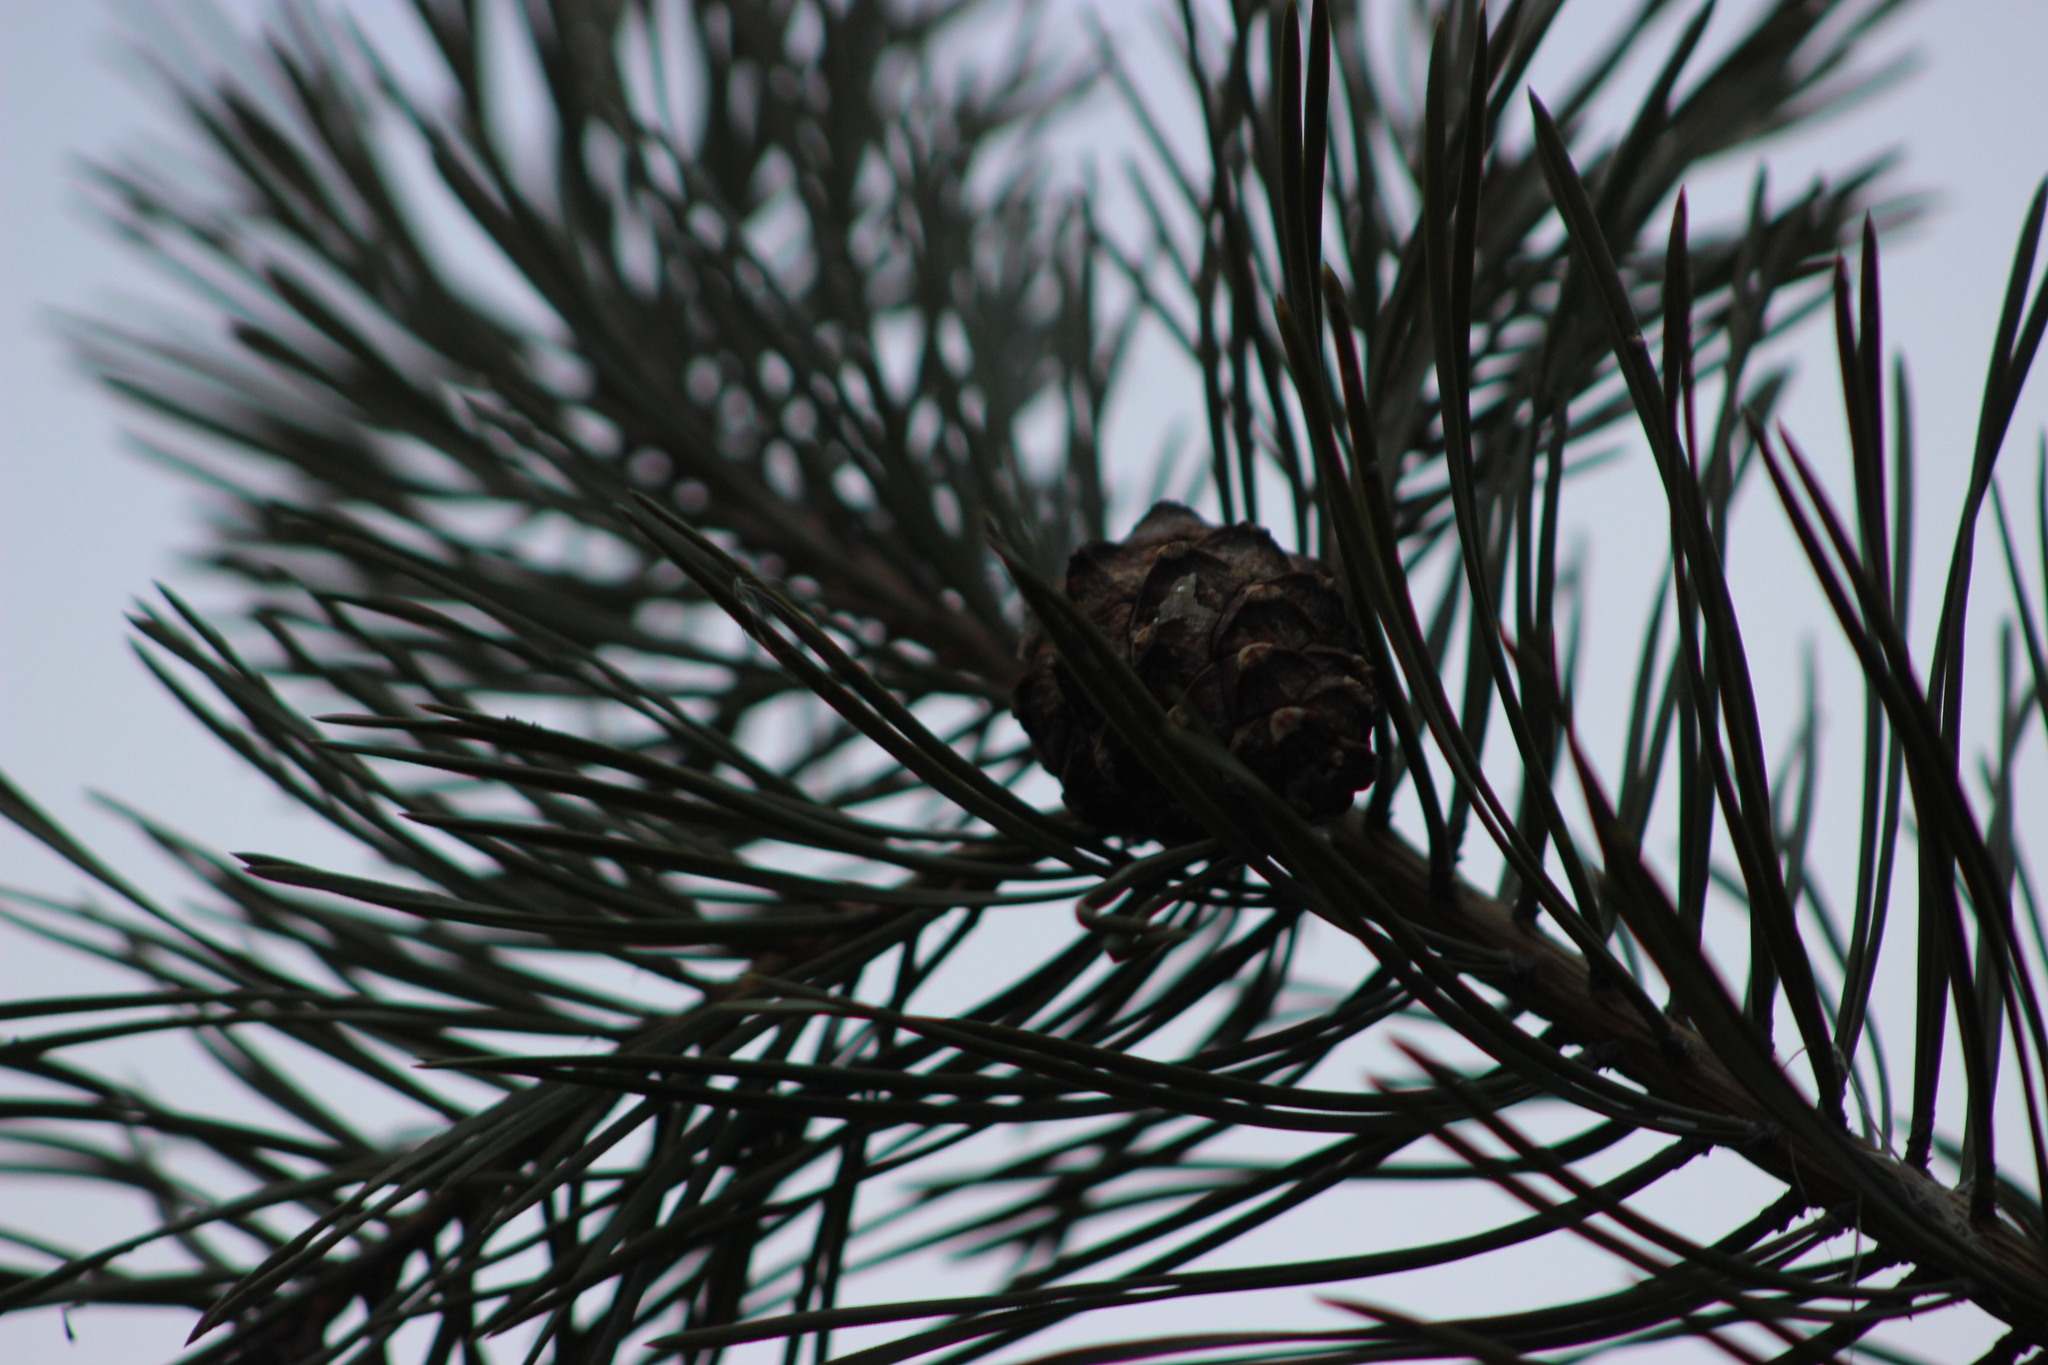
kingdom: Plantae
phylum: Tracheophyta
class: Pinopsida
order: Pinales
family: Pinaceae
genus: Pinus
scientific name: Pinus sylvestris
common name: Scots pine
